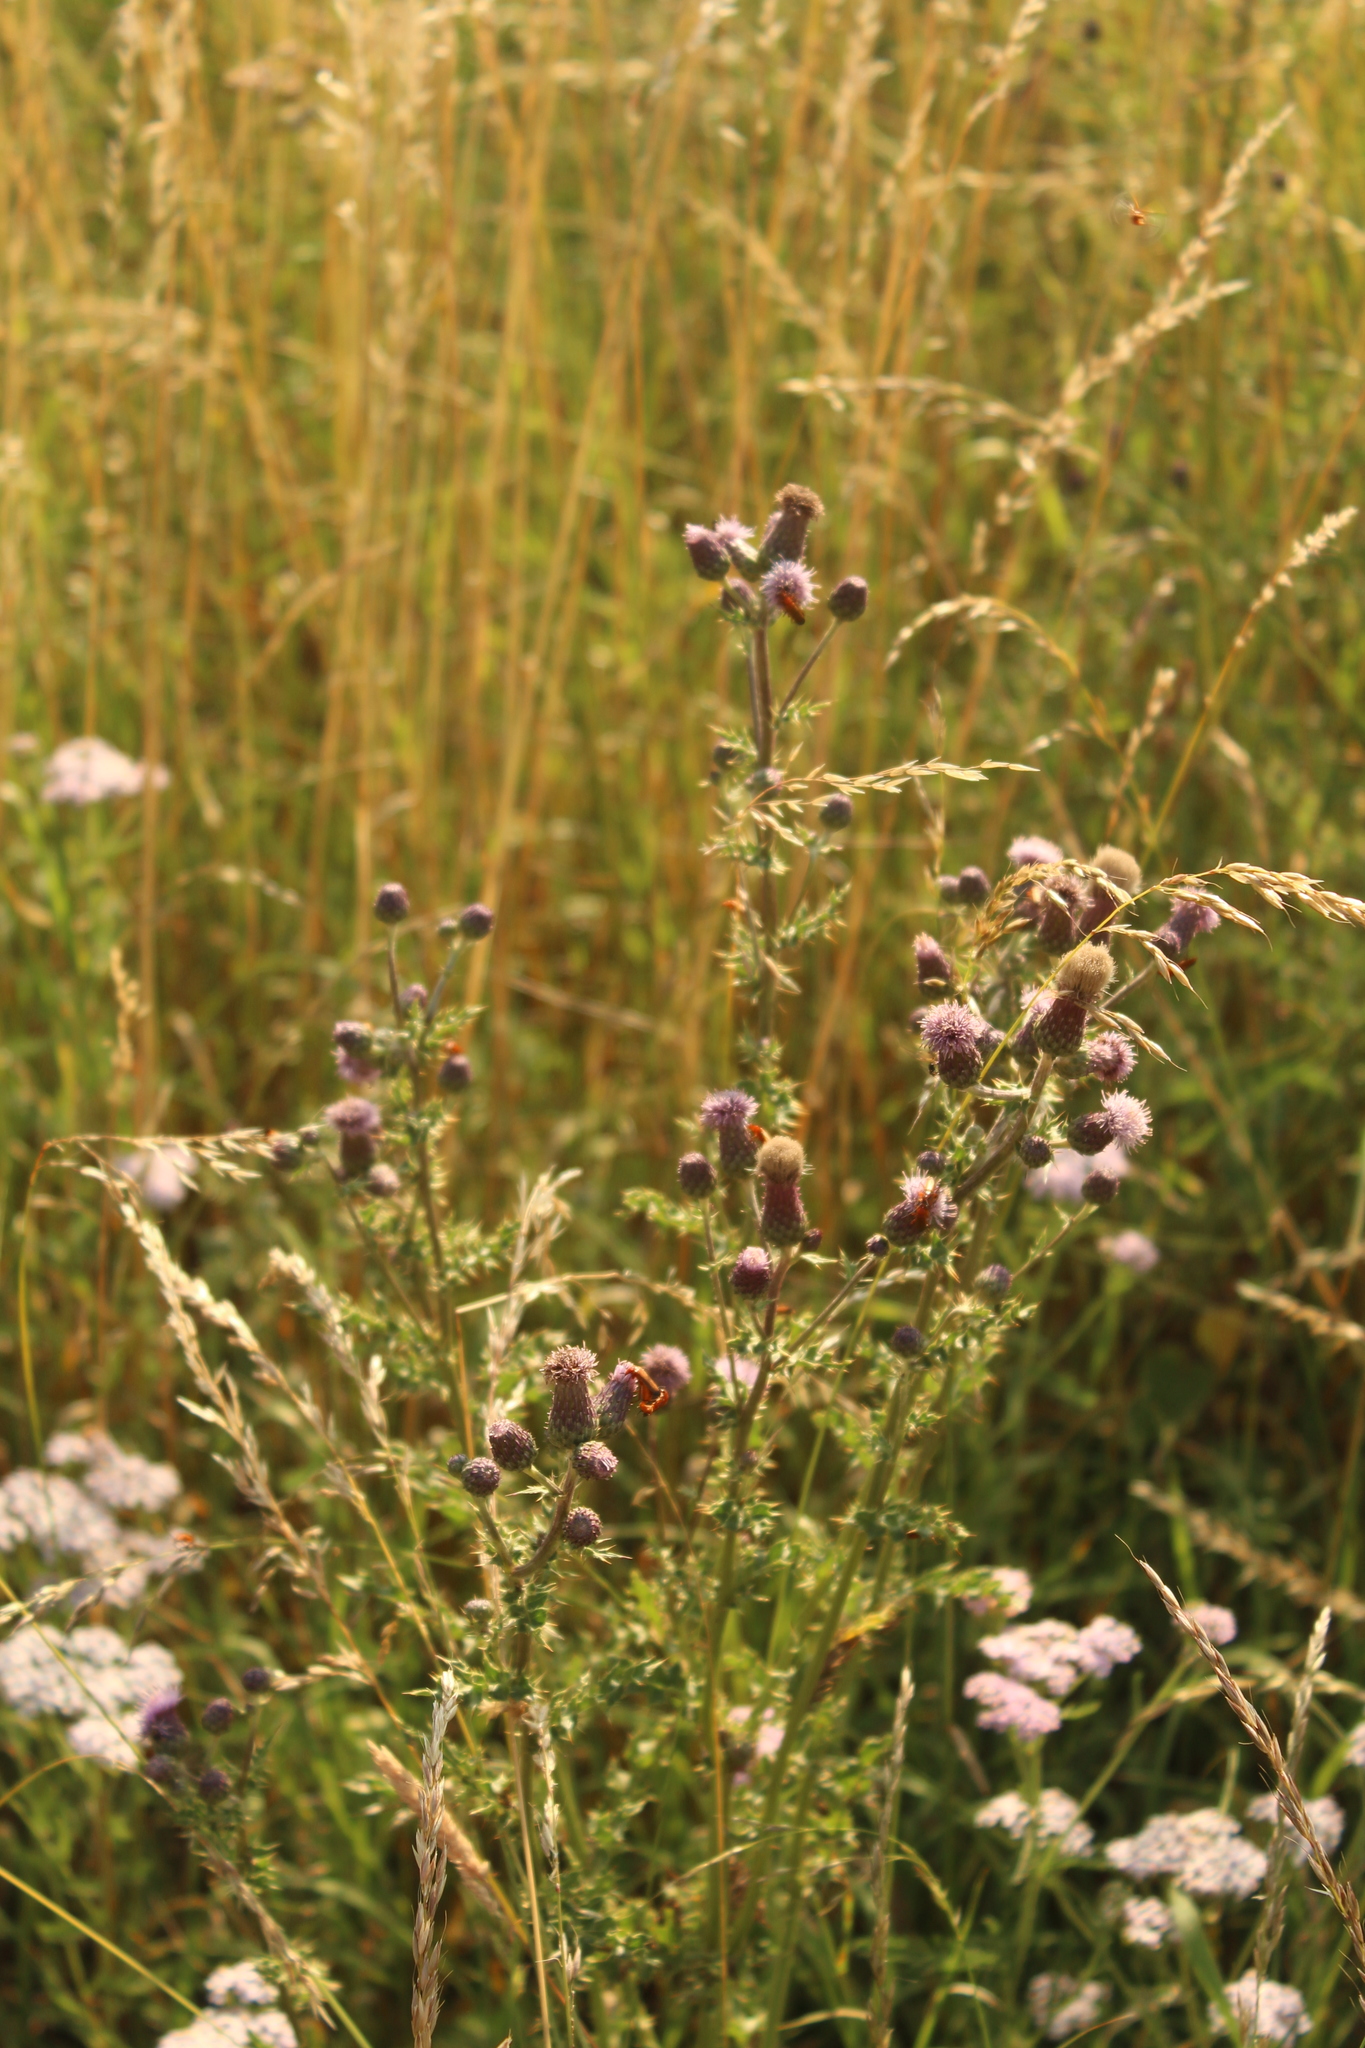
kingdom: Plantae
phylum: Tracheophyta
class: Magnoliopsida
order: Asterales
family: Asteraceae
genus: Cirsium
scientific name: Cirsium arvense
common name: Creeping thistle
